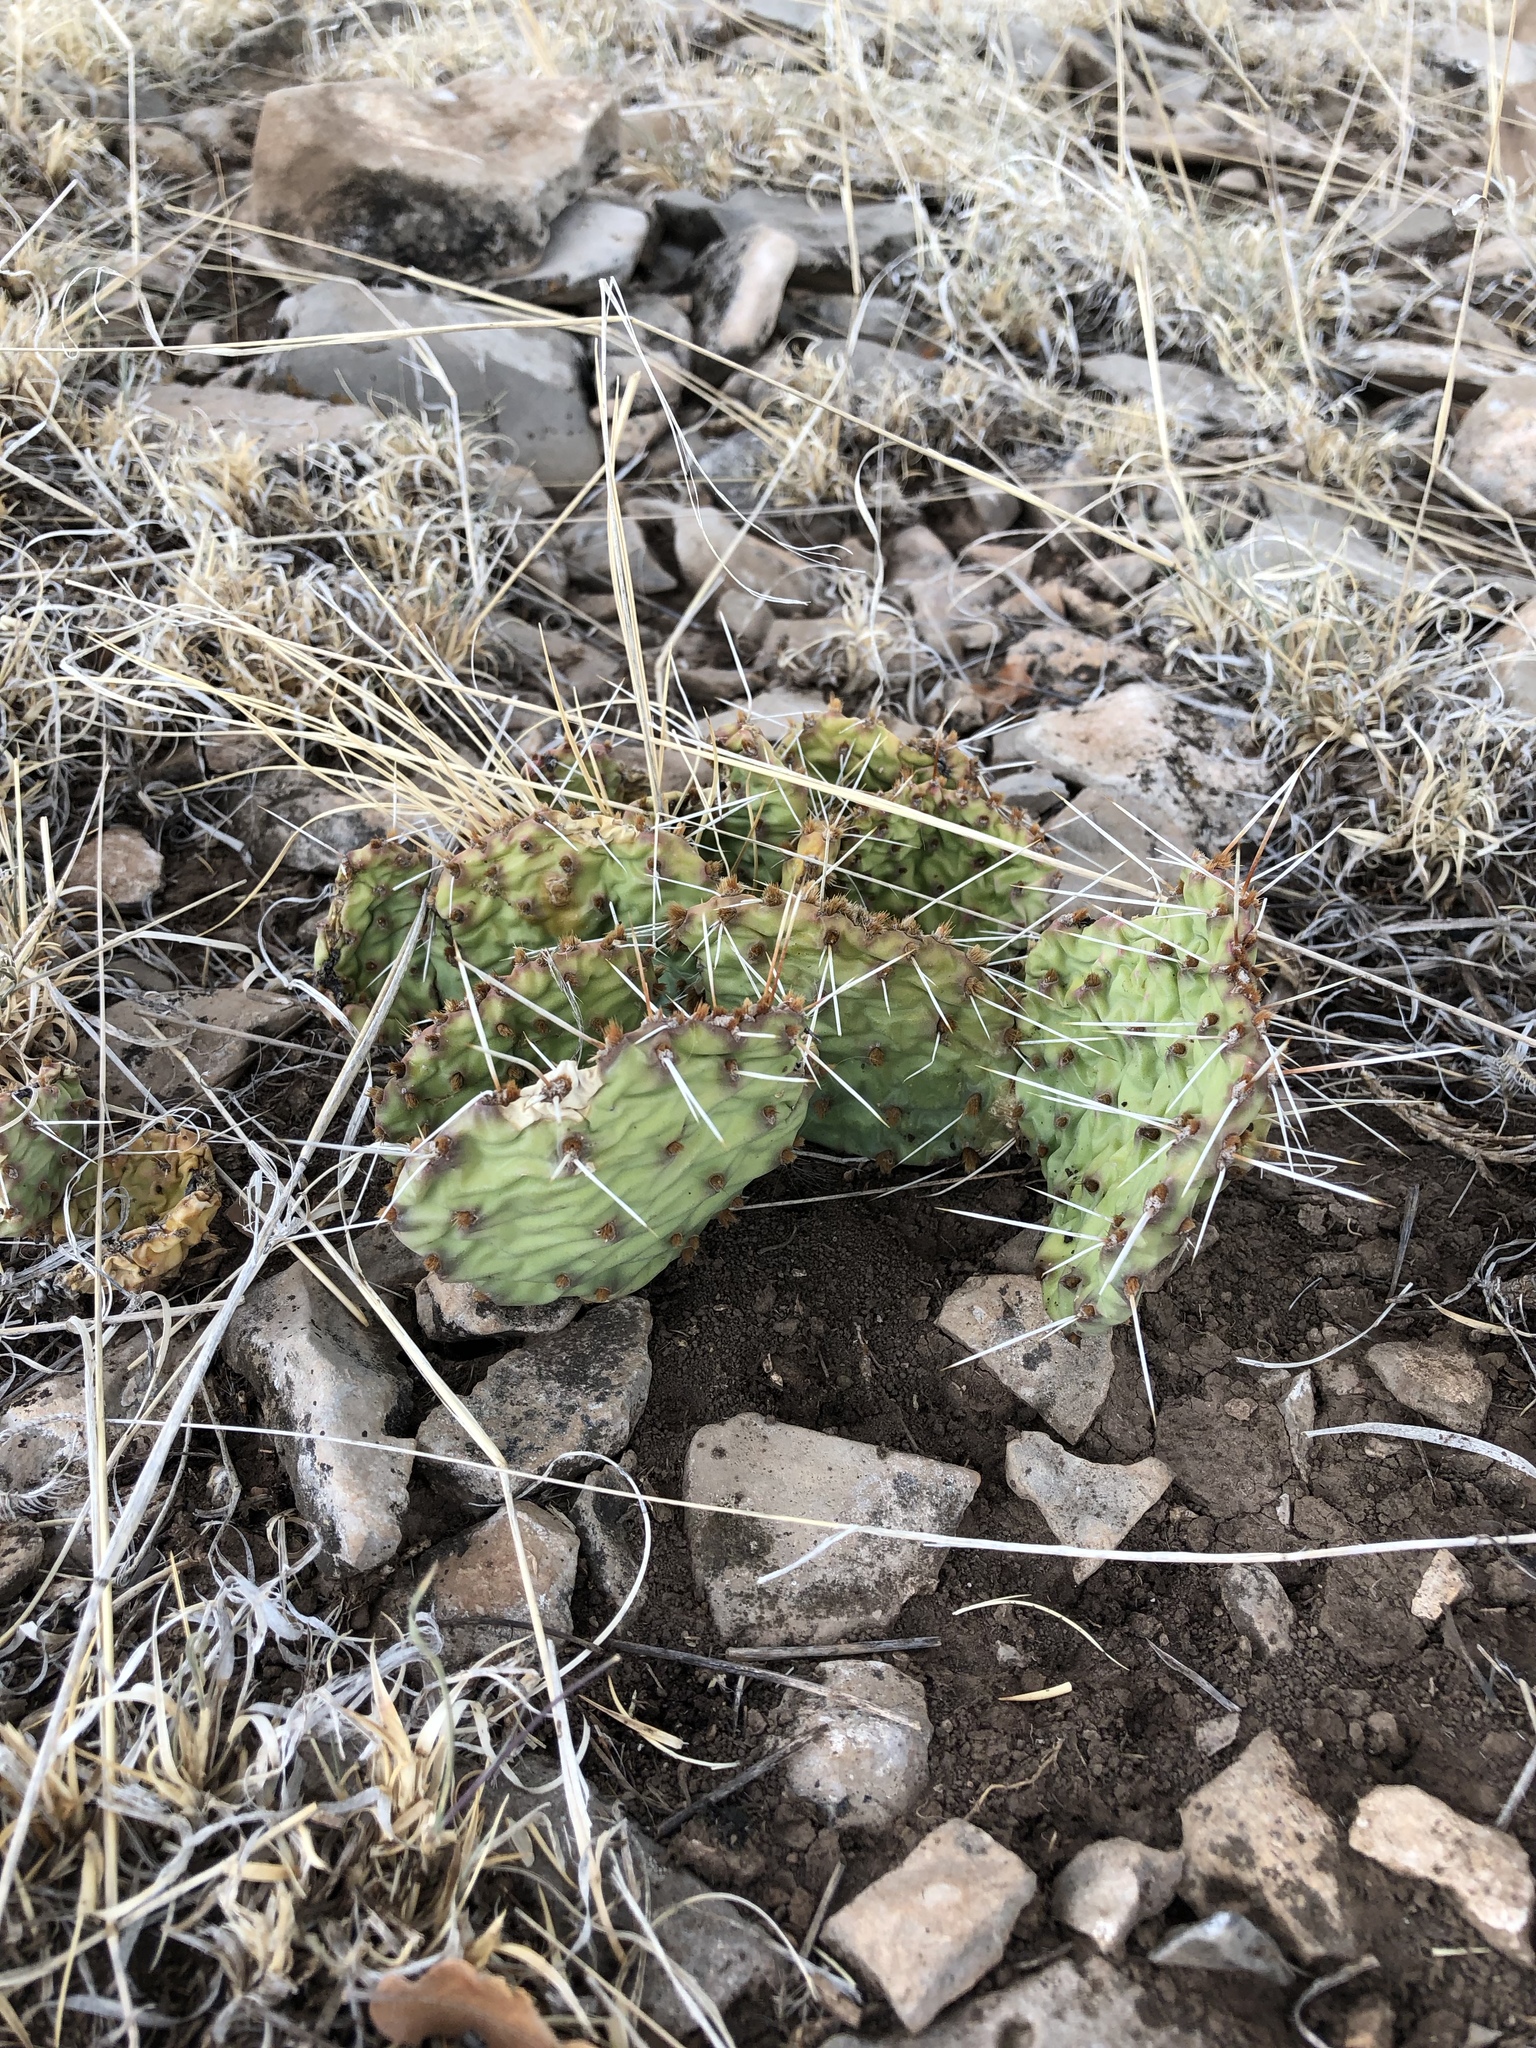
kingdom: Plantae
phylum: Tracheophyta
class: Magnoliopsida
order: Caryophyllales
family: Cactaceae
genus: Opuntia
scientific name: Opuntia pottsii
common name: Potts's prickly-pear
